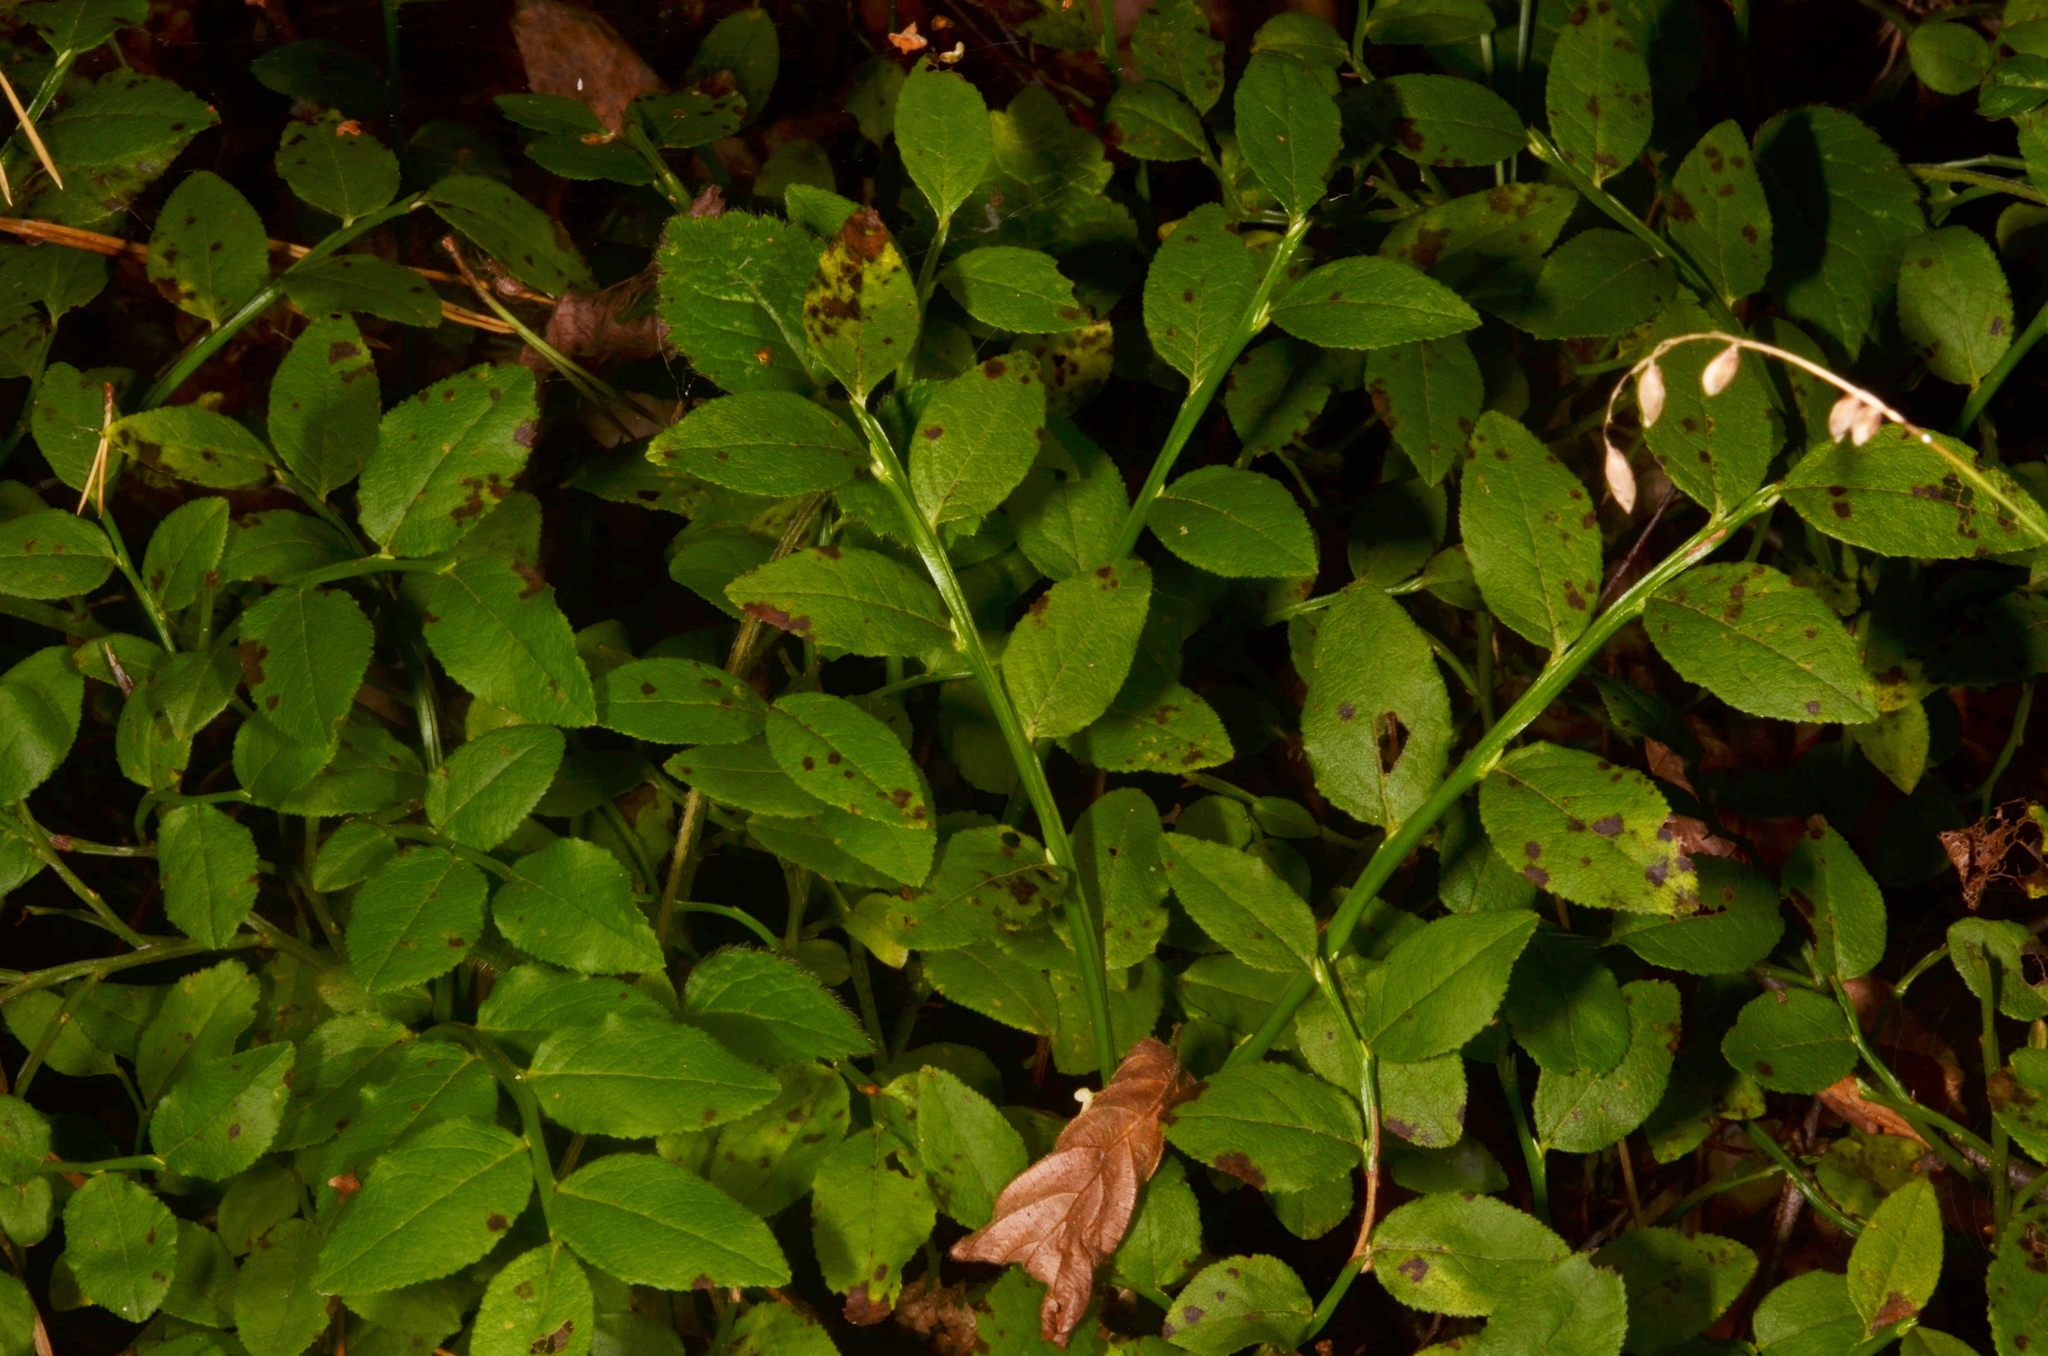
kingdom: Plantae
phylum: Tracheophyta
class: Magnoliopsida
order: Ericales
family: Ericaceae
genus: Vaccinium
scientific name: Vaccinium myrtillus
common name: Bilberry
